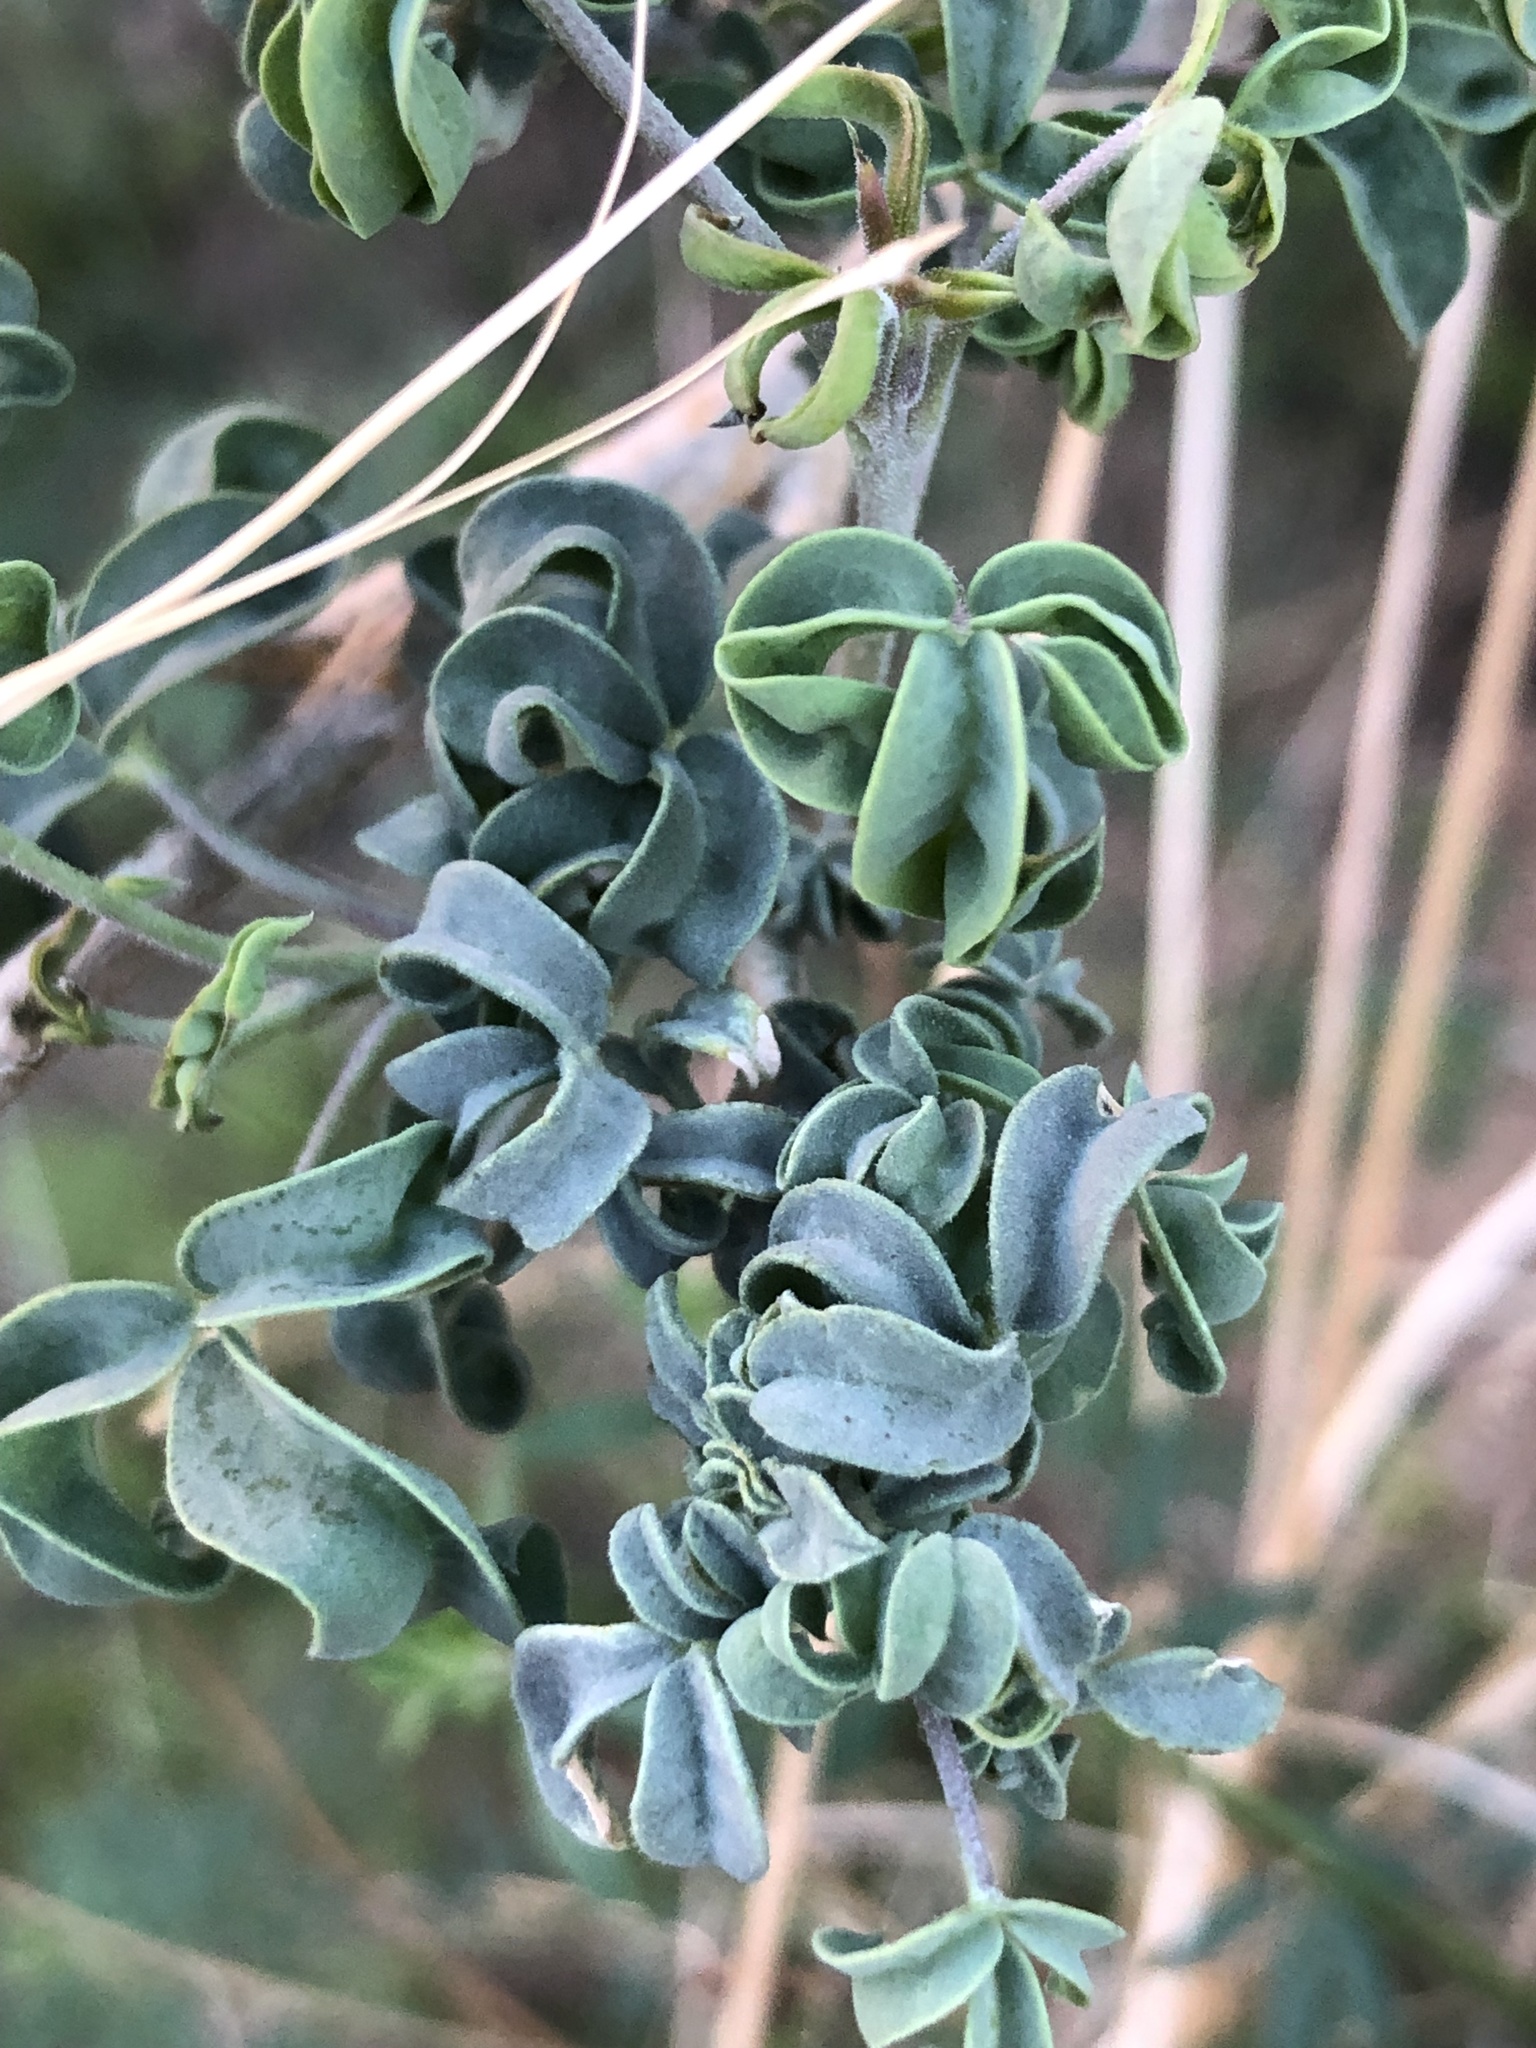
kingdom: Plantae
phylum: Tracheophyta
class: Magnoliopsida
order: Brassicales
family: Cleomaceae
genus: Cleomella
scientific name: Cleomella arborea
